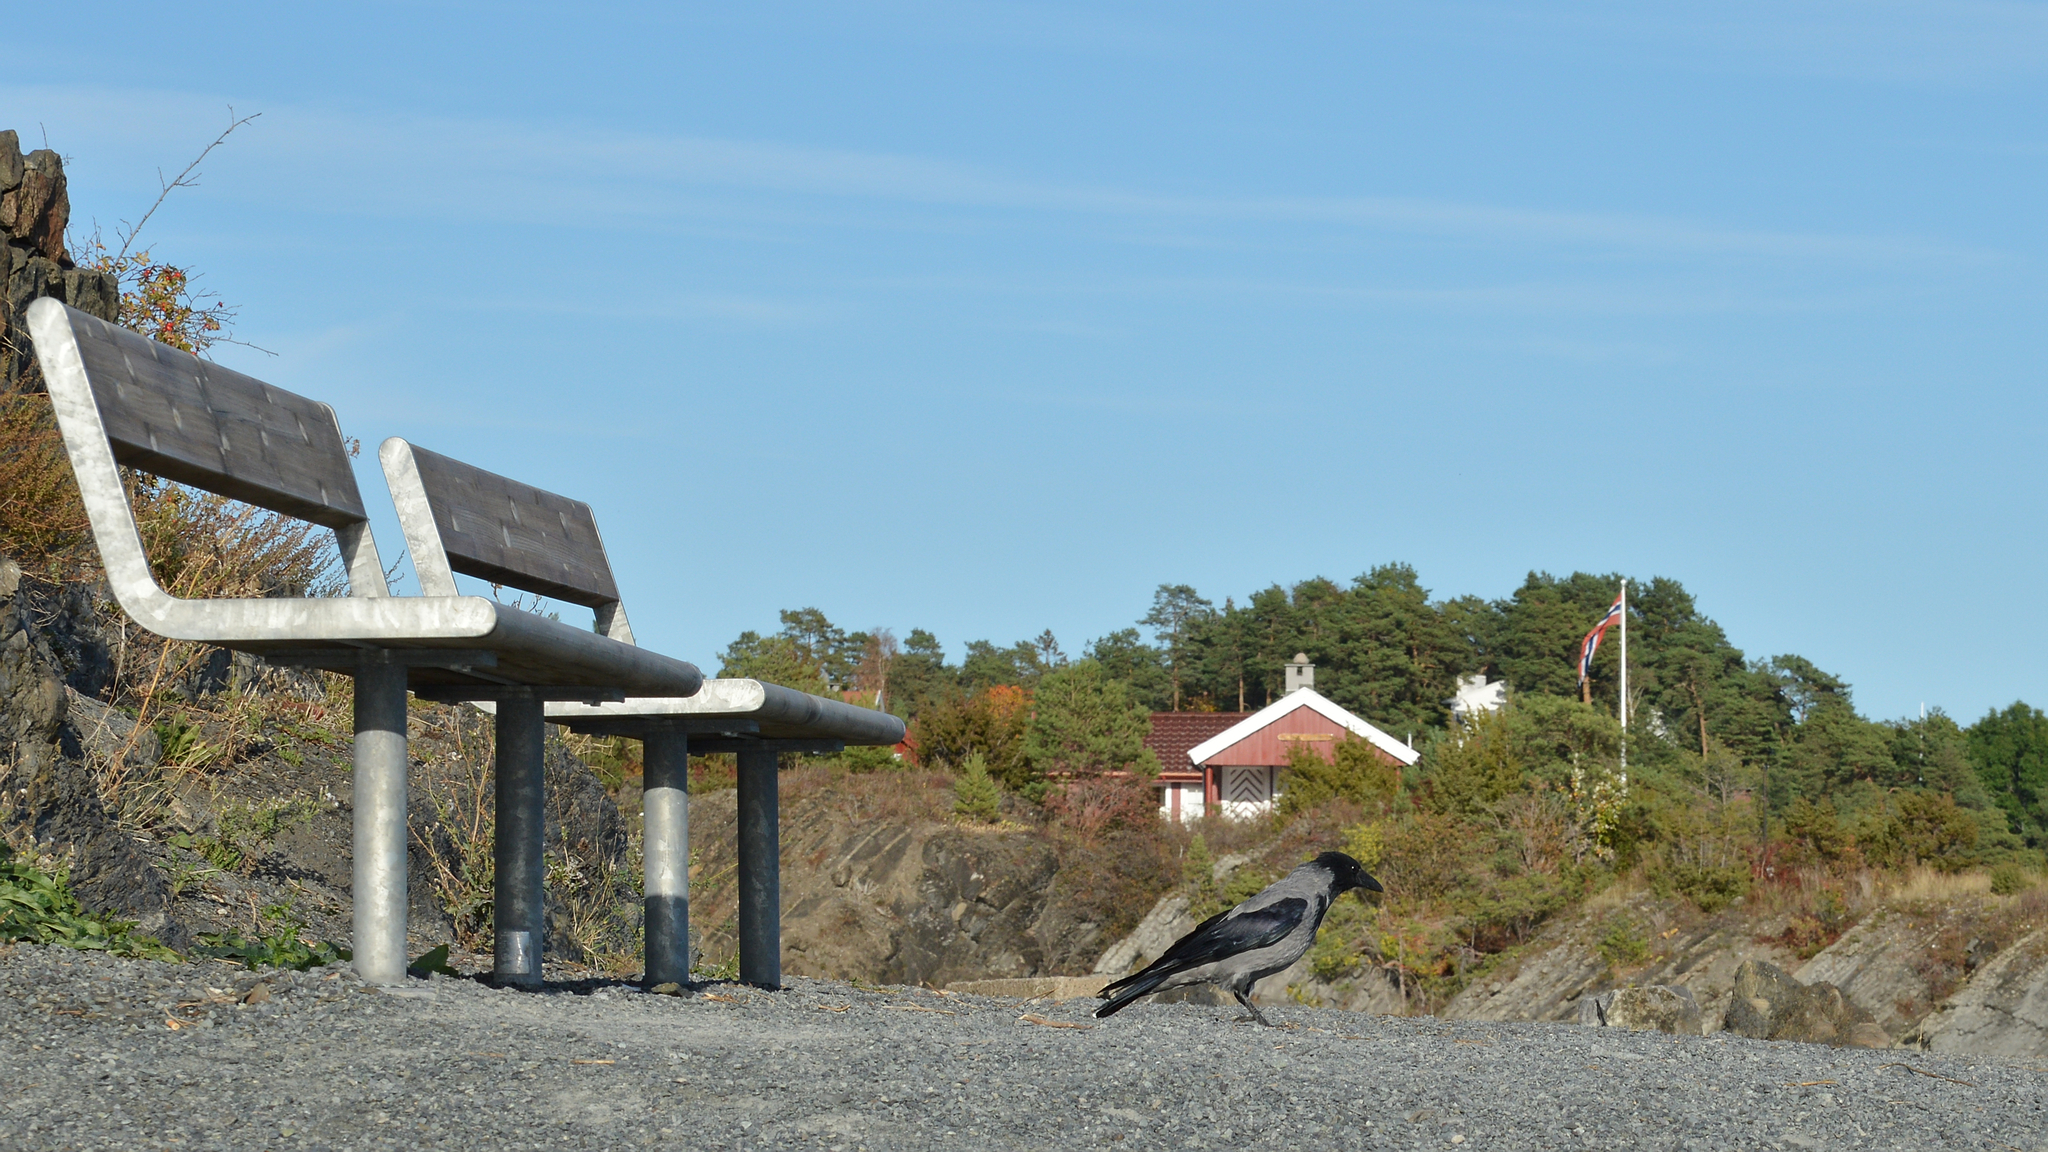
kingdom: Animalia
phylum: Chordata
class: Aves
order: Passeriformes
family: Corvidae
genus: Corvus
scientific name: Corvus cornix
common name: Hooded crow
